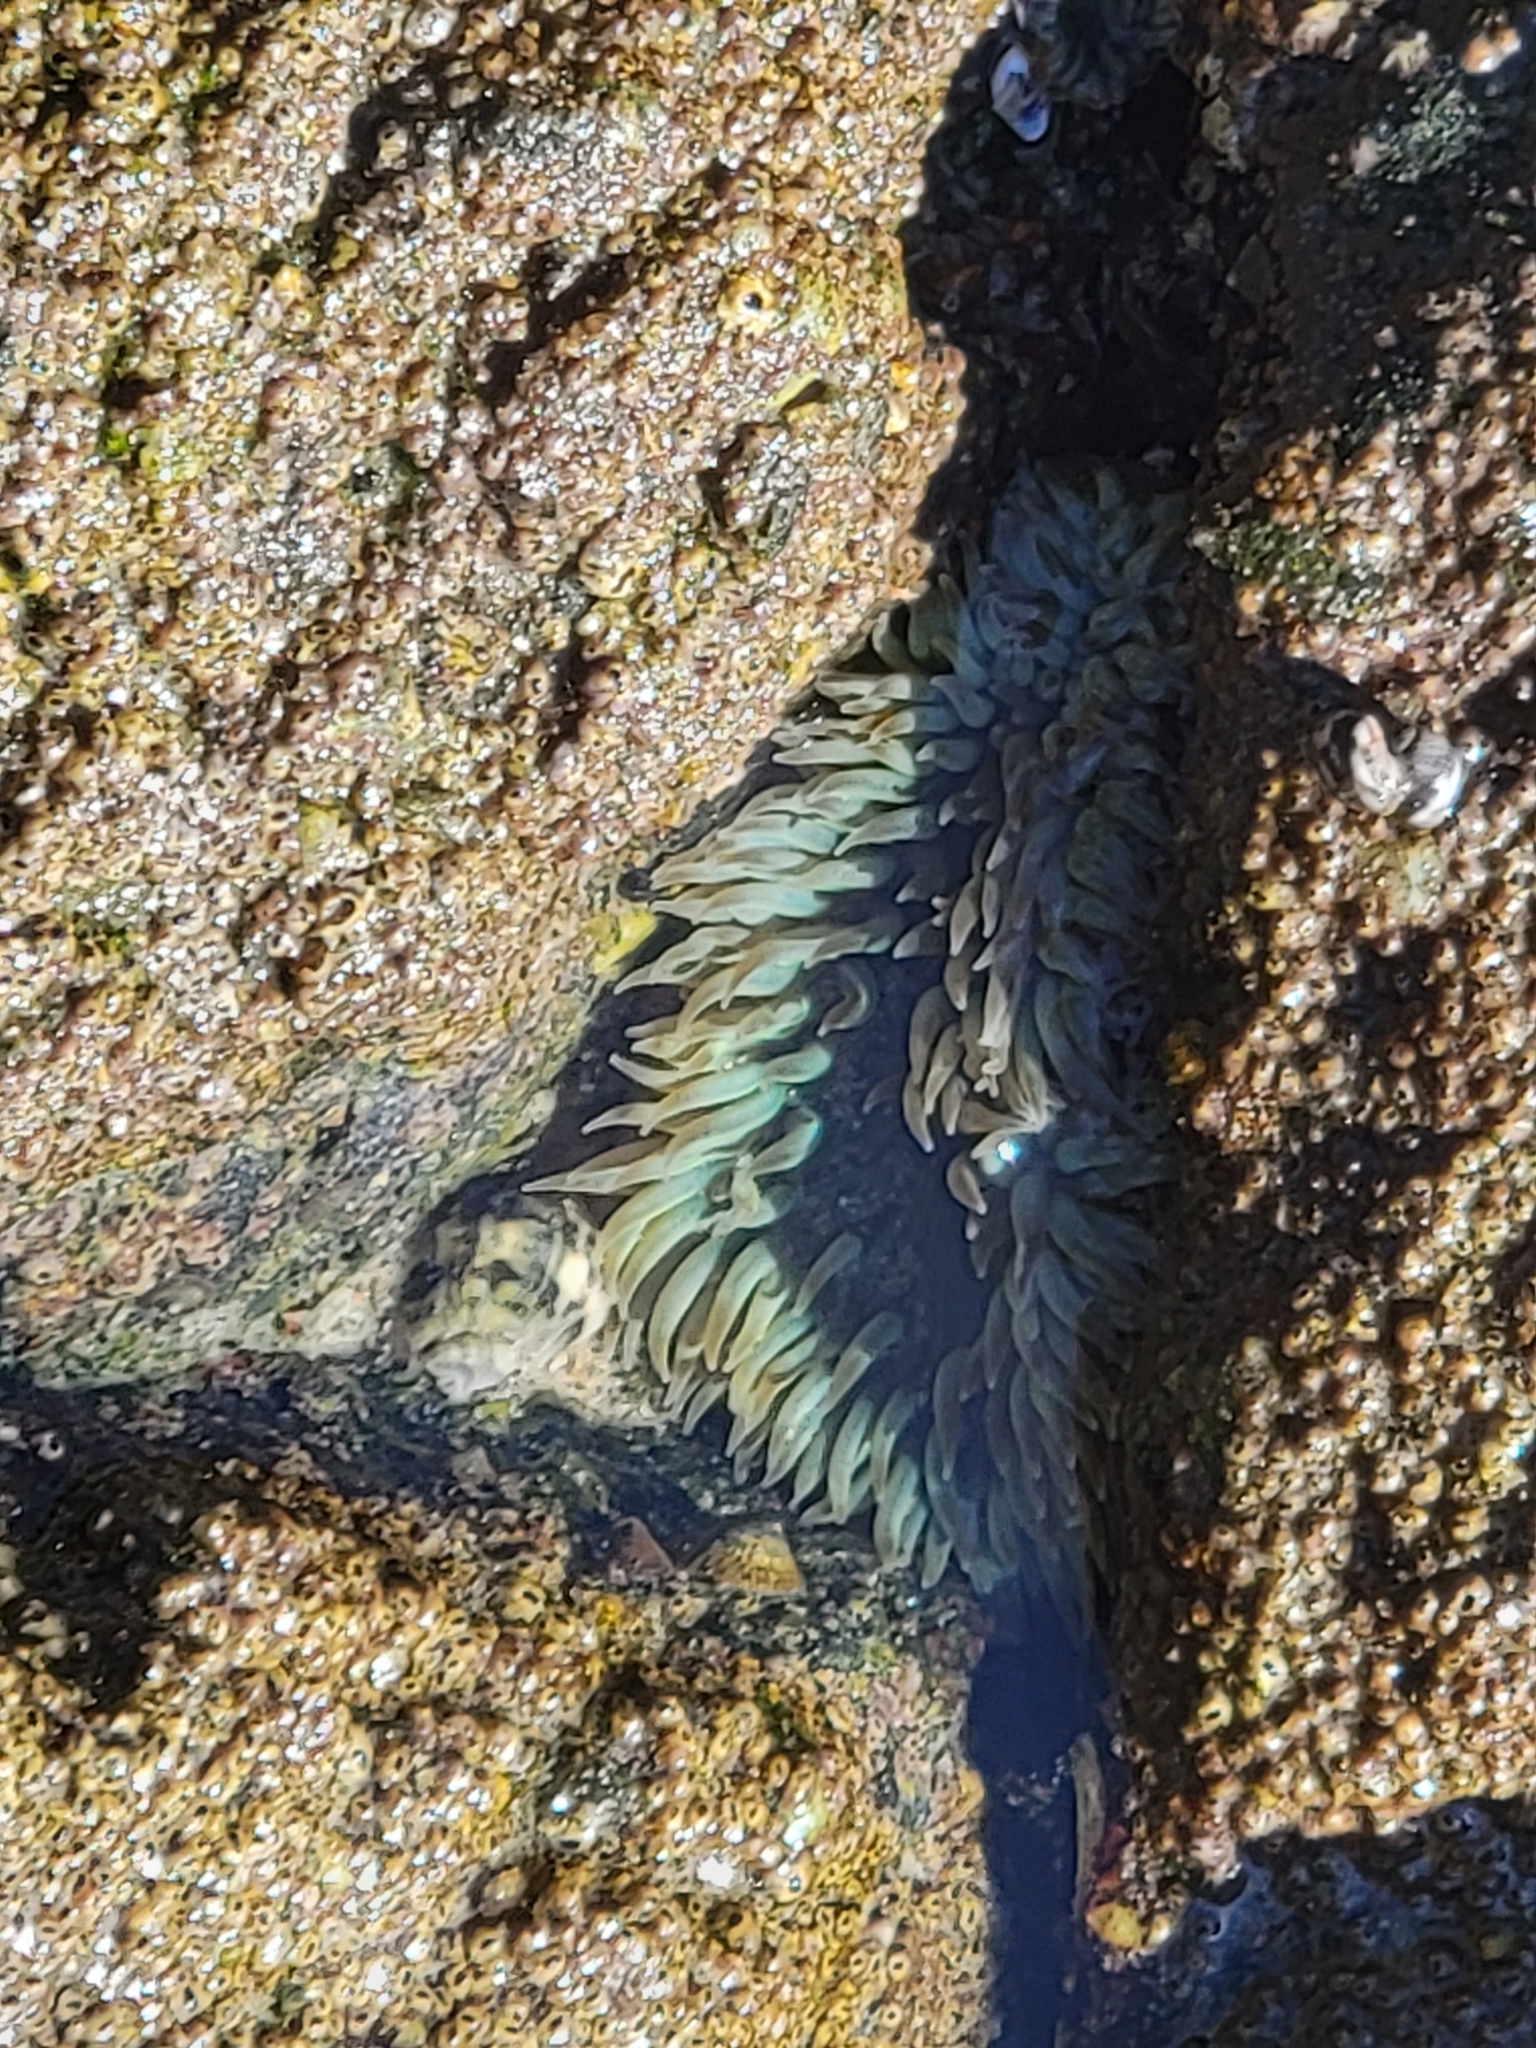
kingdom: Animalia
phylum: Cnidaria
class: Anthozoa
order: Actiniaria
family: Actiniidae
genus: Anthopleura
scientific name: Anthopleura sola
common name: Sun anemone
